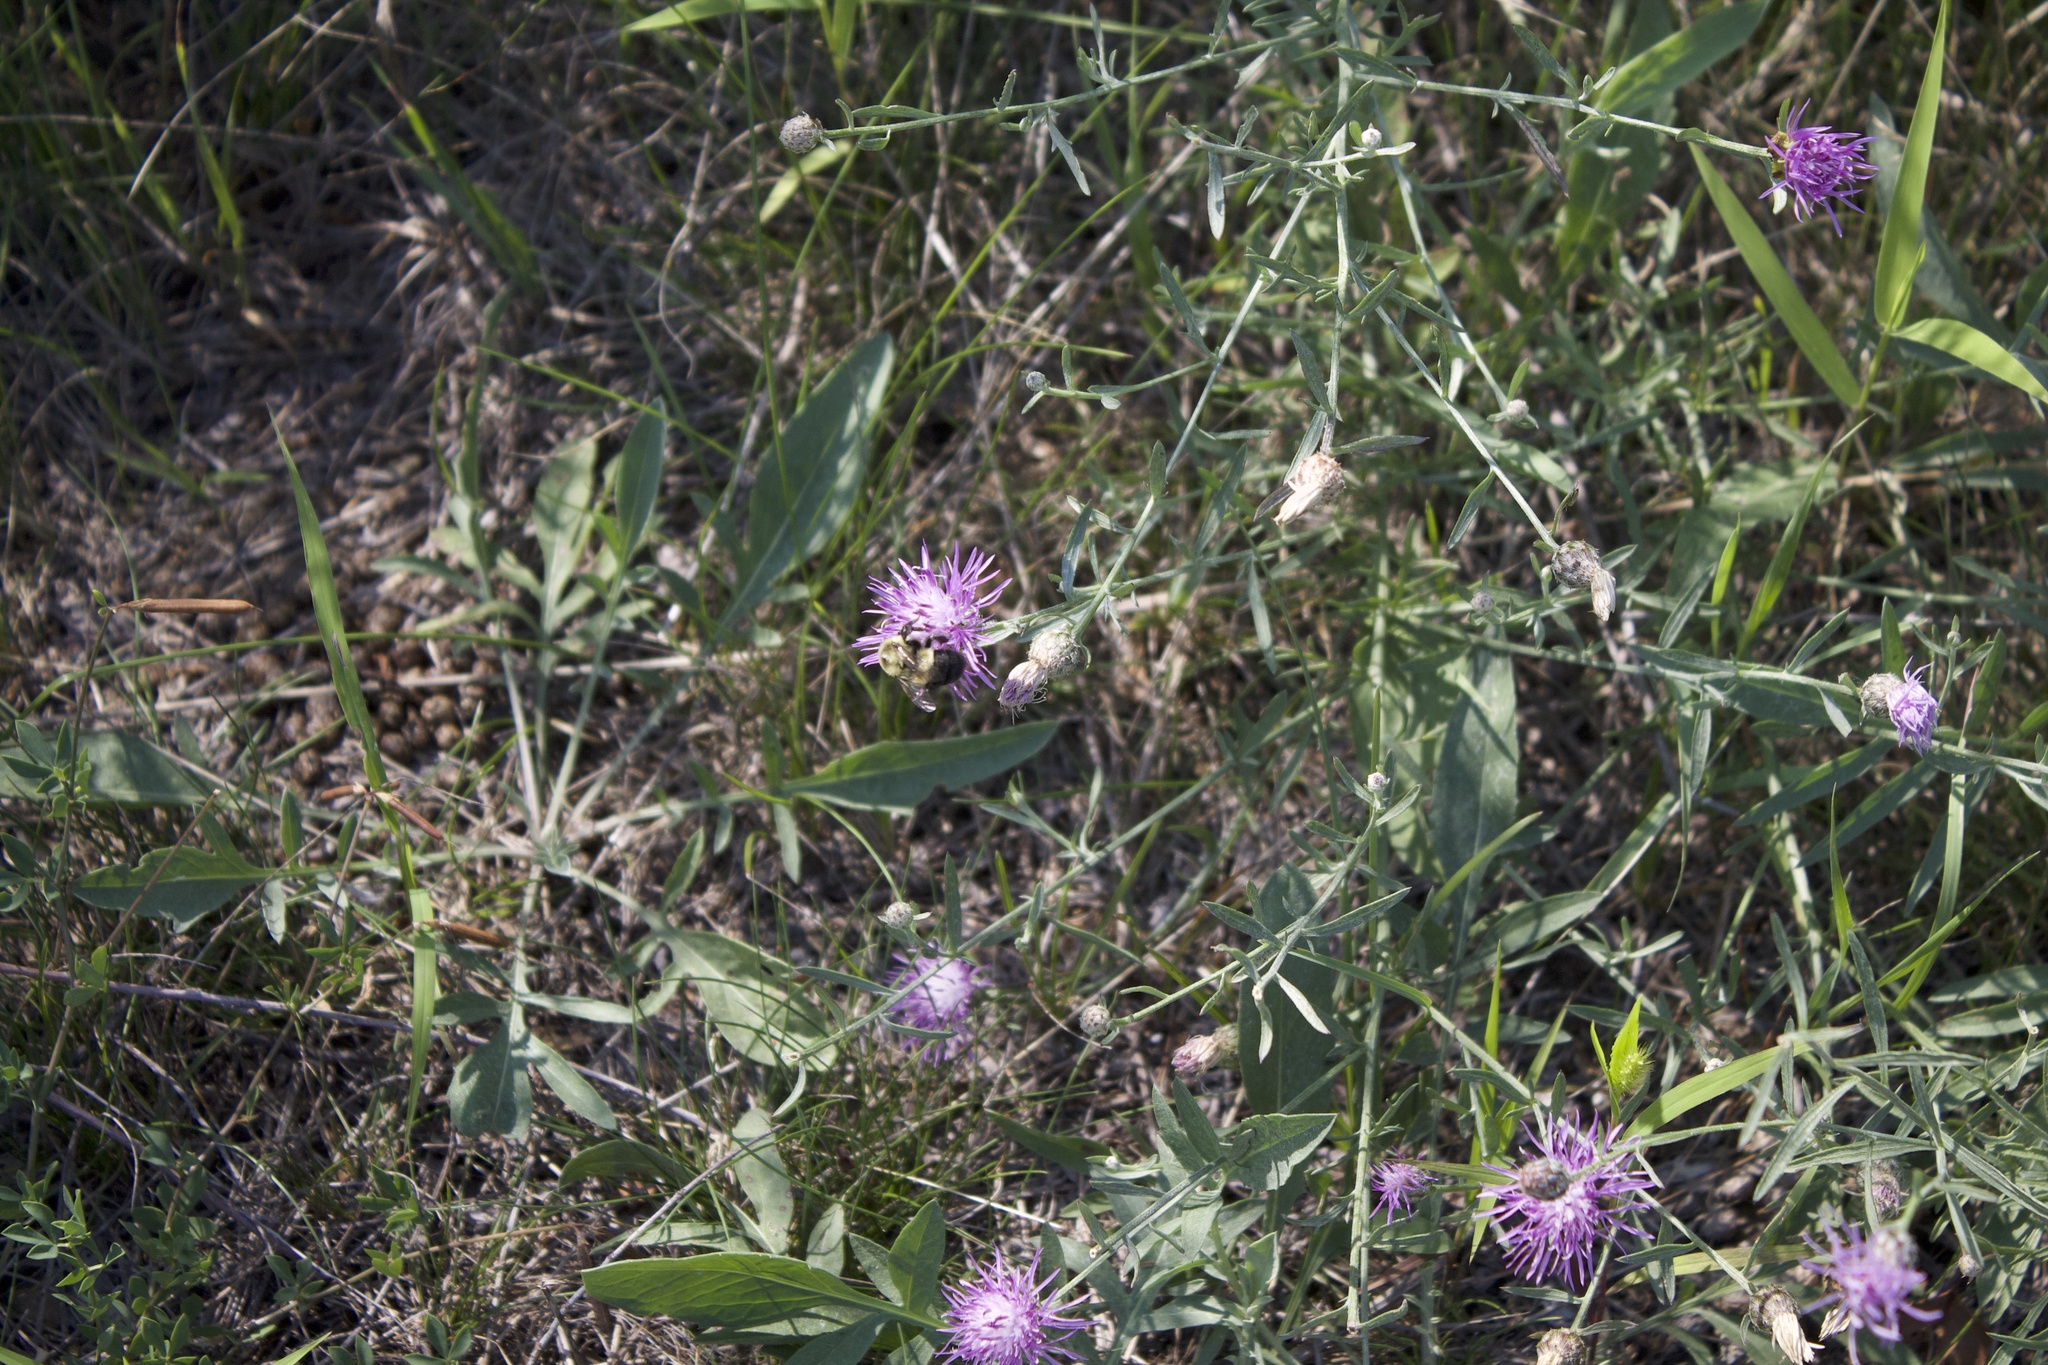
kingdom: Animalia
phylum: Arthropoda
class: Insecta
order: Hymenoptera
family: Apidae
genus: Bombus
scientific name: Bombus impatiens
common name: Common eastern bumble bee
